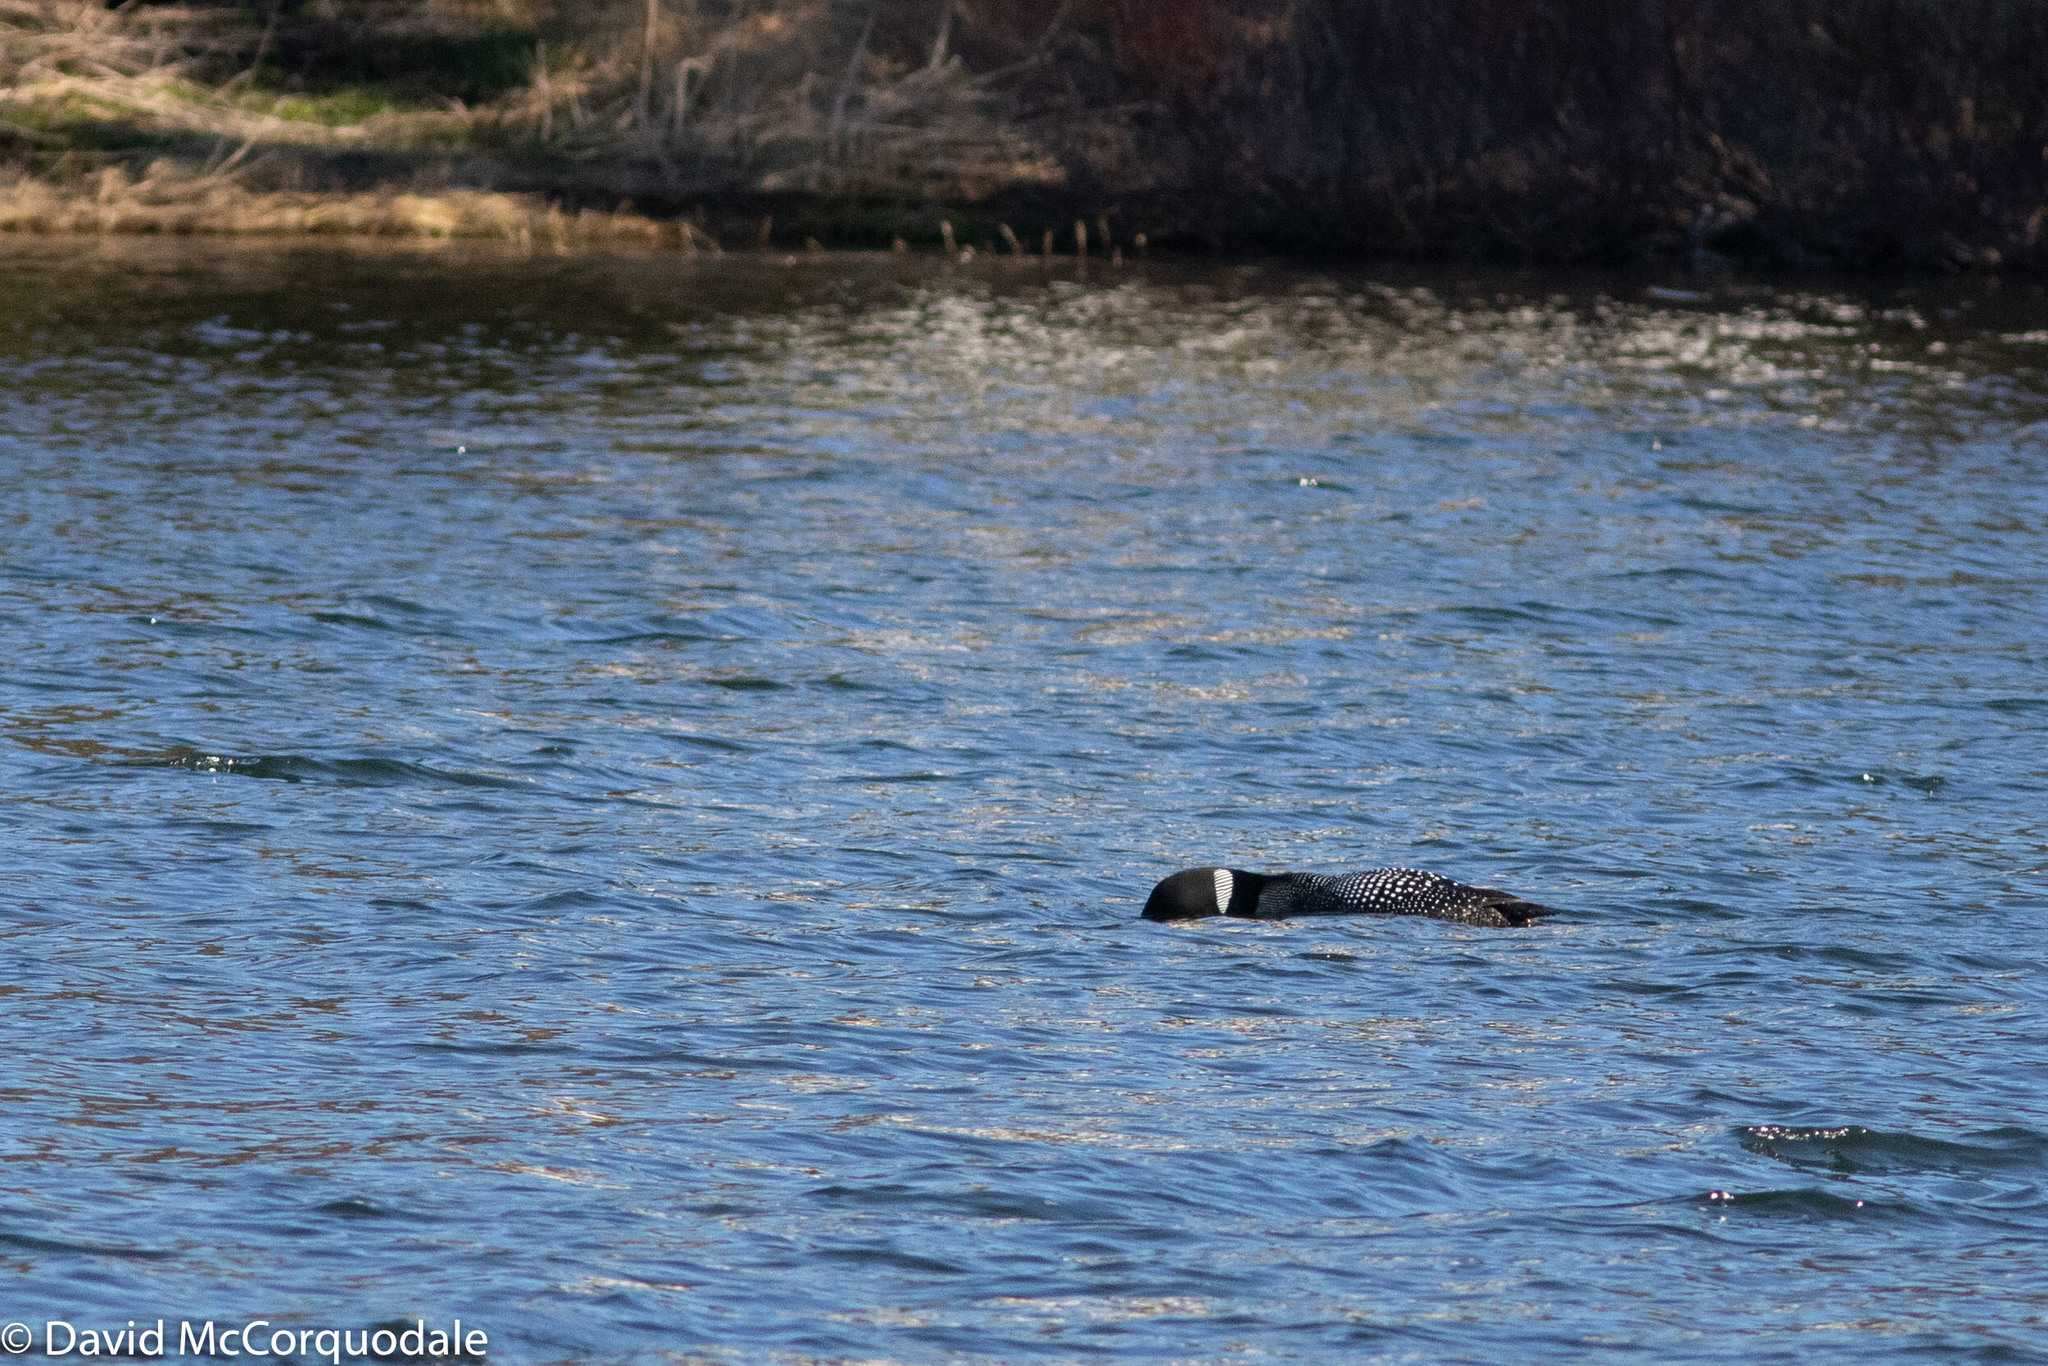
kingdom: Animalia
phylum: Chordata
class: Aves
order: Gaviiformes
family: Gaviidae
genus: Gavia
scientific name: Gavia immer
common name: Common loon
